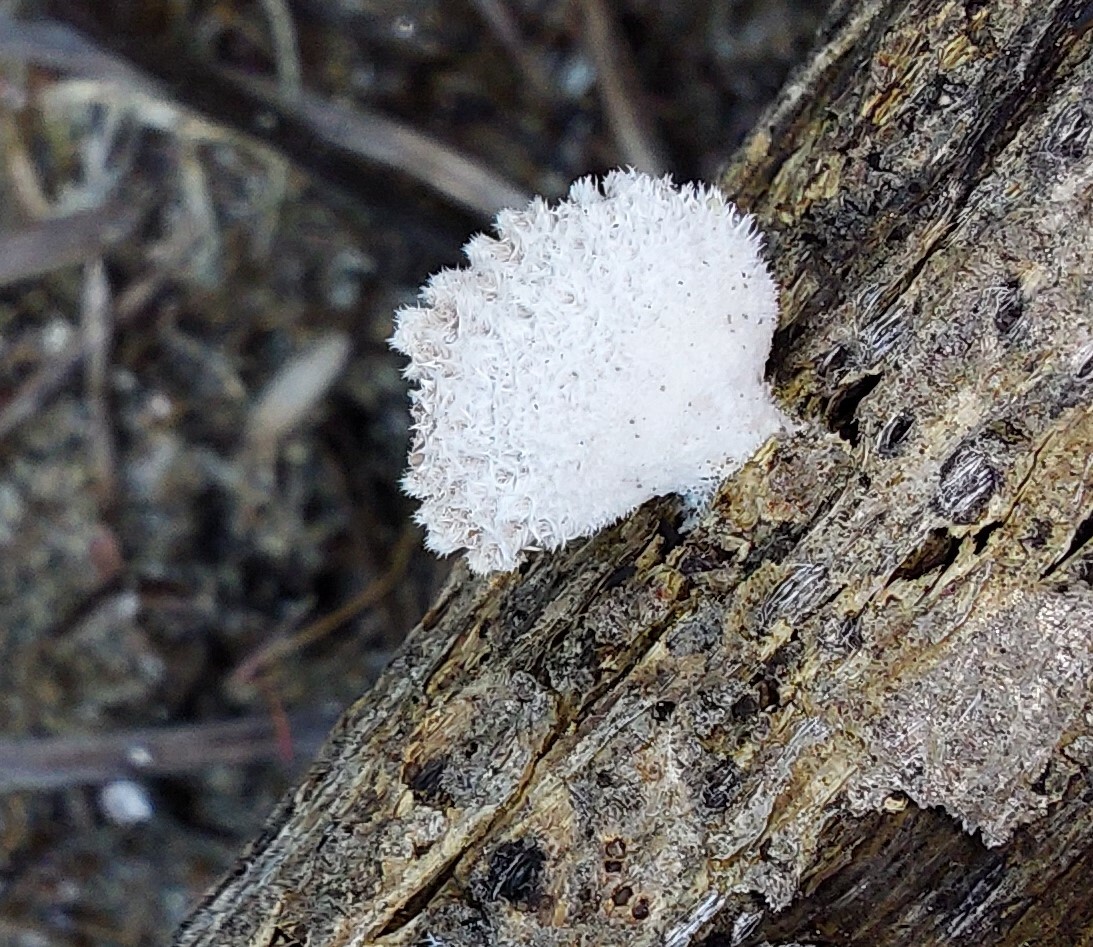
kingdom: Fungi
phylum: Basidiomycota
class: Agaricomycetes
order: Agaricales
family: Schizophyllaceae
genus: Schizophyllum
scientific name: Schizophyllum commune
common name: Common porecrust
